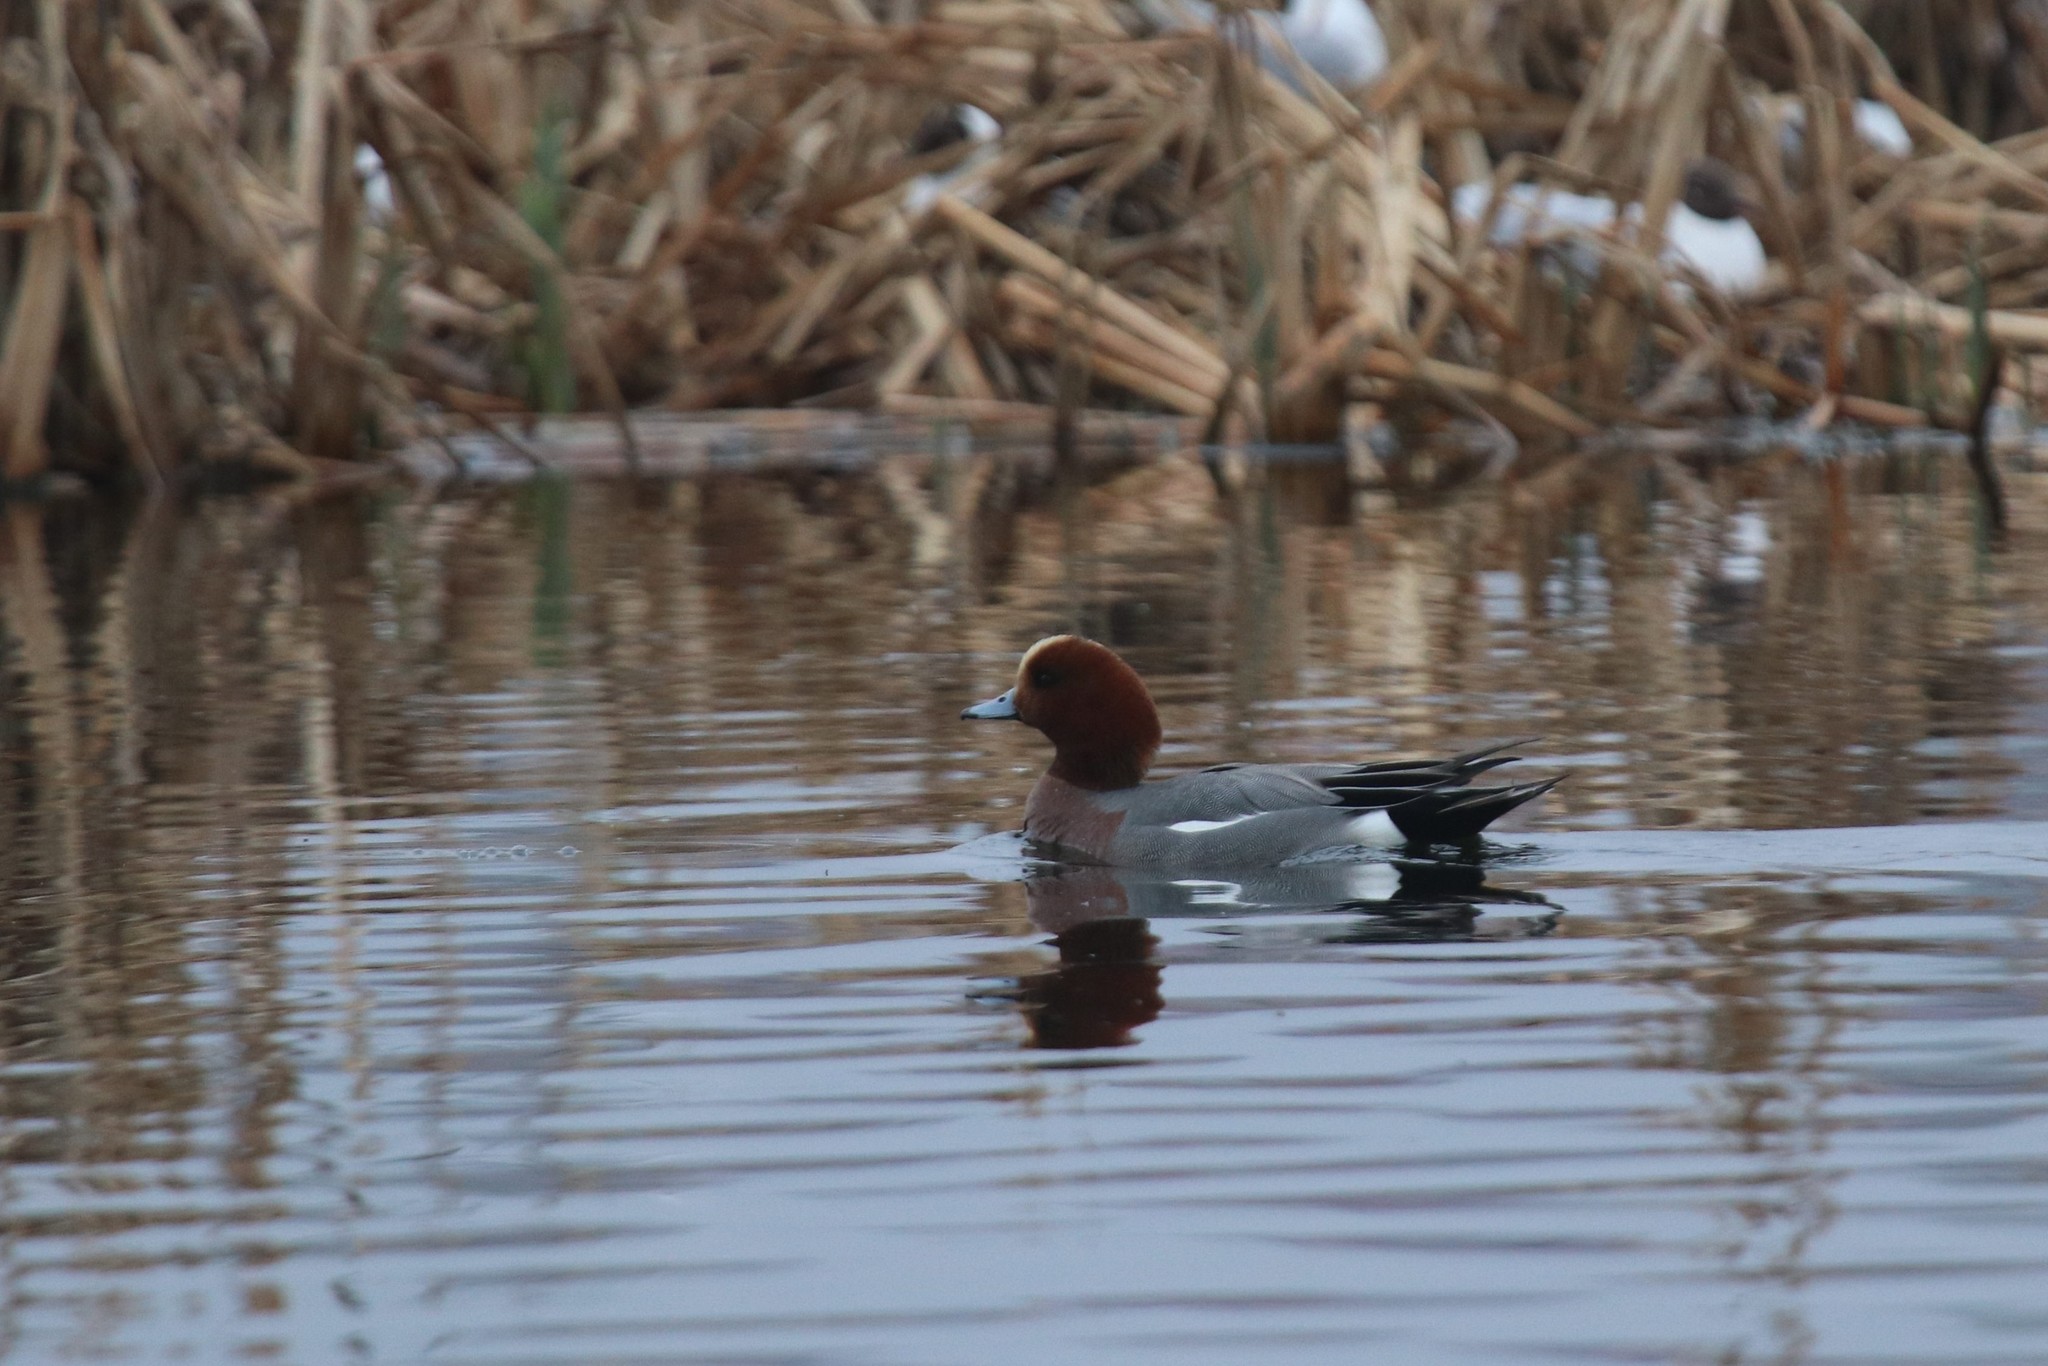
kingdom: Animalia
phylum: Chordata
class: Aves
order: Anseriformes
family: Anatidae
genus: Mareca
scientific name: Mareca penelope
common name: Eurasian wigeon
